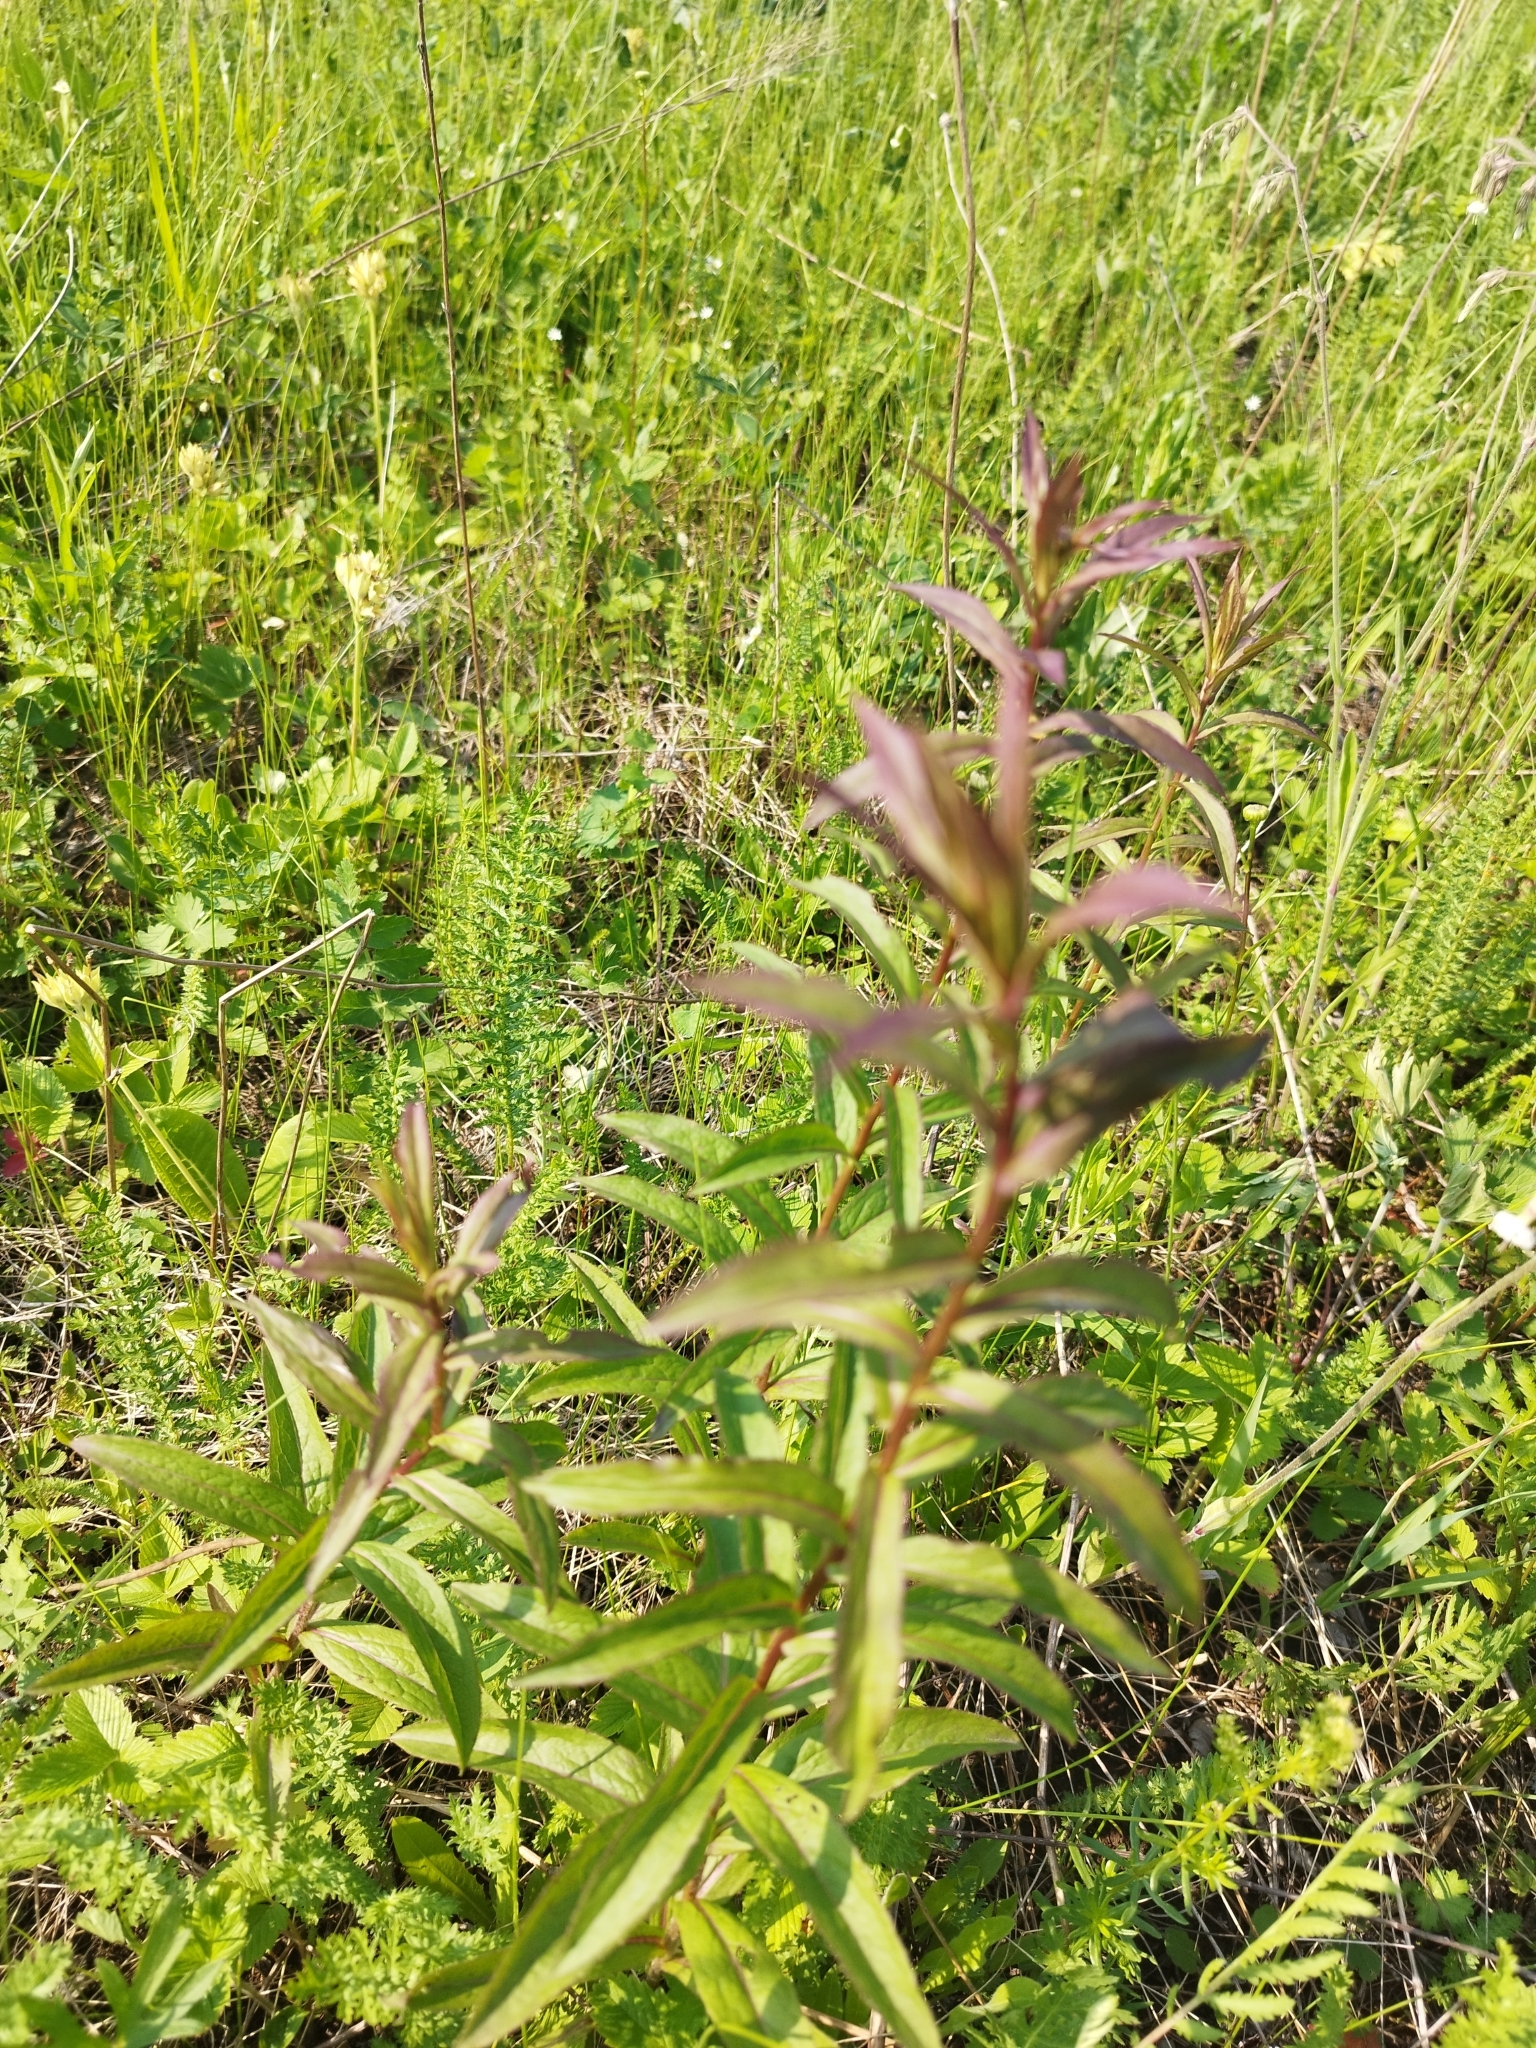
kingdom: Plantae
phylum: Tracheophyta
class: Magnoliopsida
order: Asterales
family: Asteraceae
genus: Pentanema
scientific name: Pentanema salicinum
